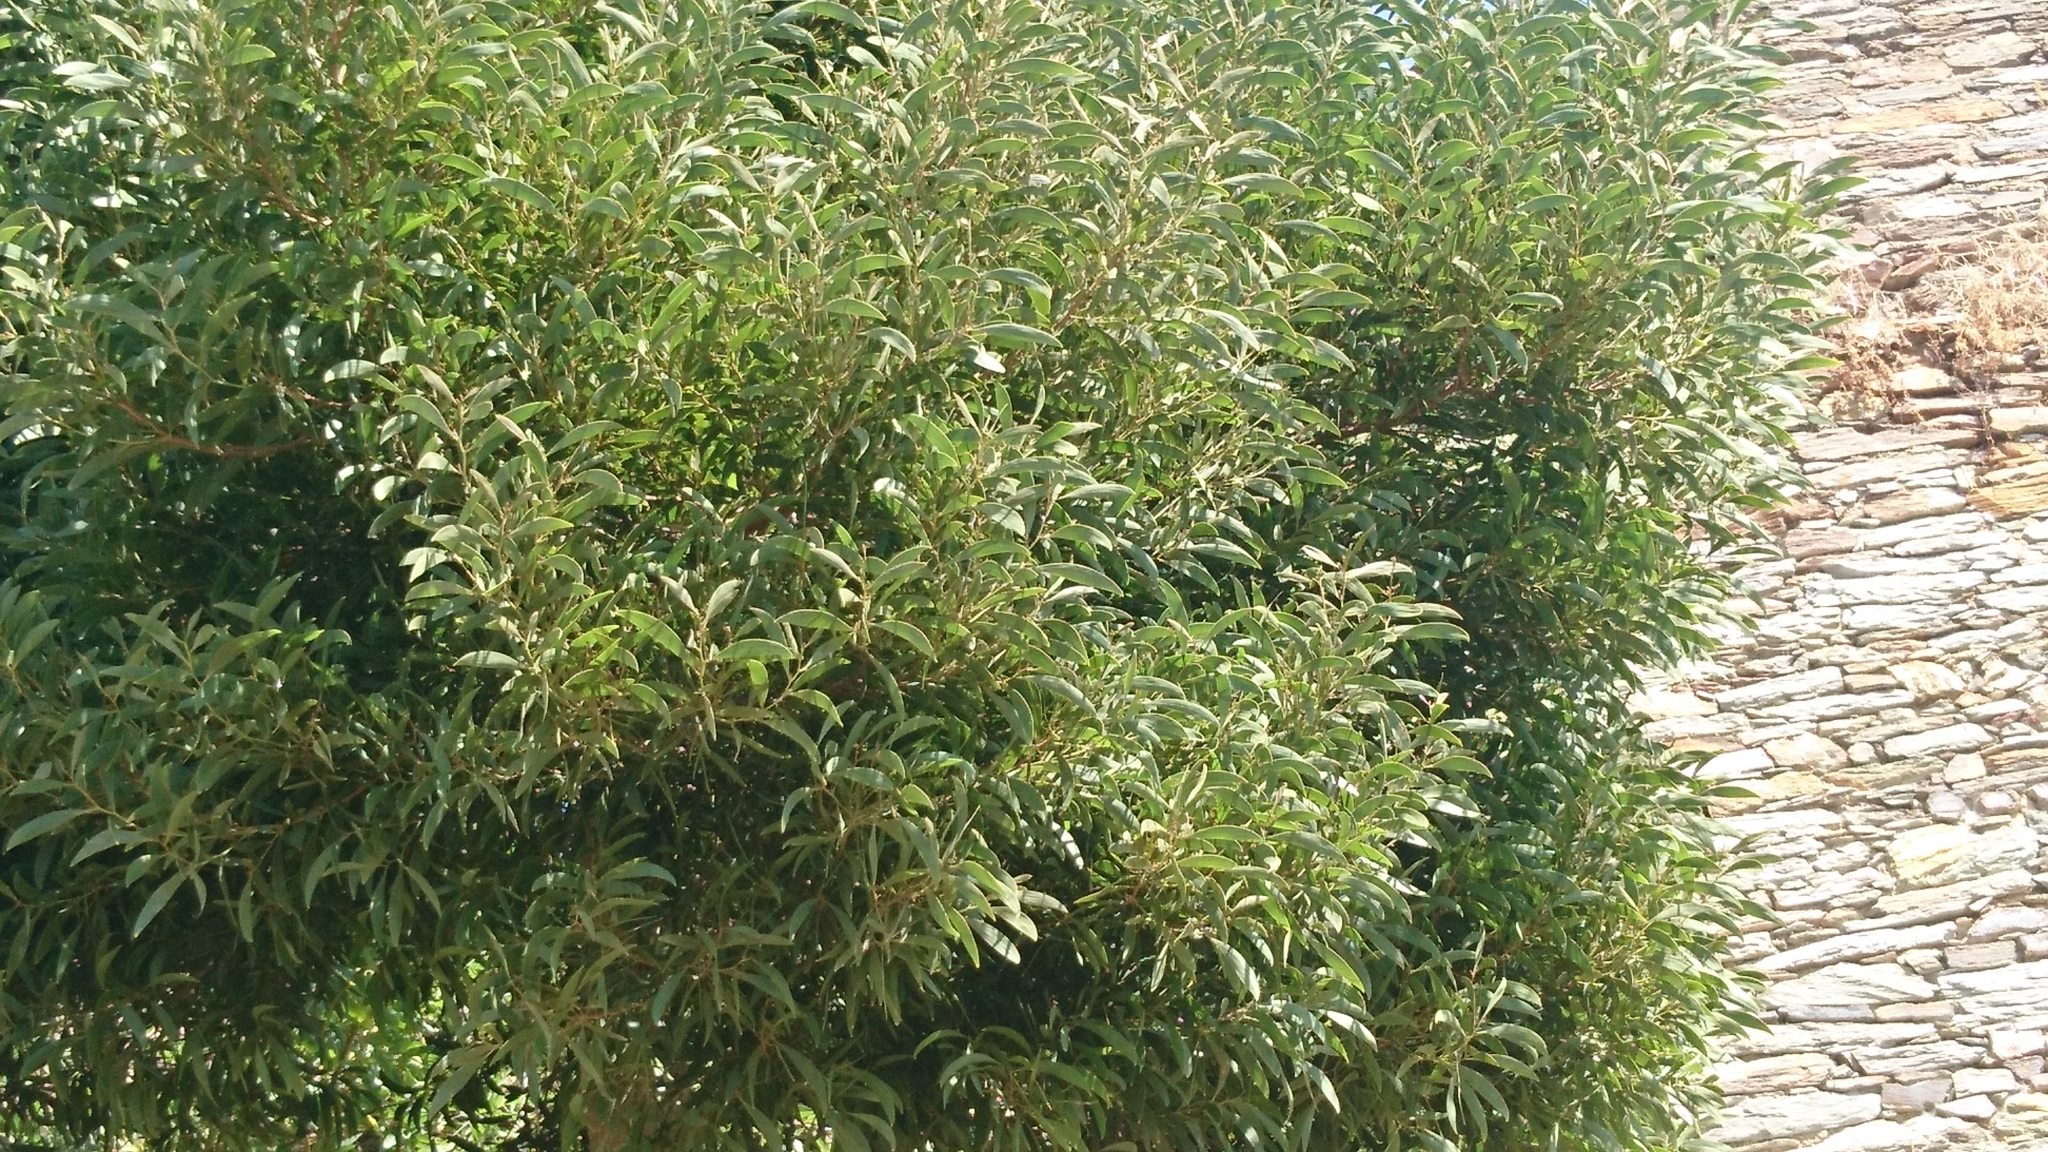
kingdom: Plantae
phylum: Tracheophyta
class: Magnoliopsida
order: Fabales
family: Fabaceae
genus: Acacia
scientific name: Acacia melanoxylon
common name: Blackwood
